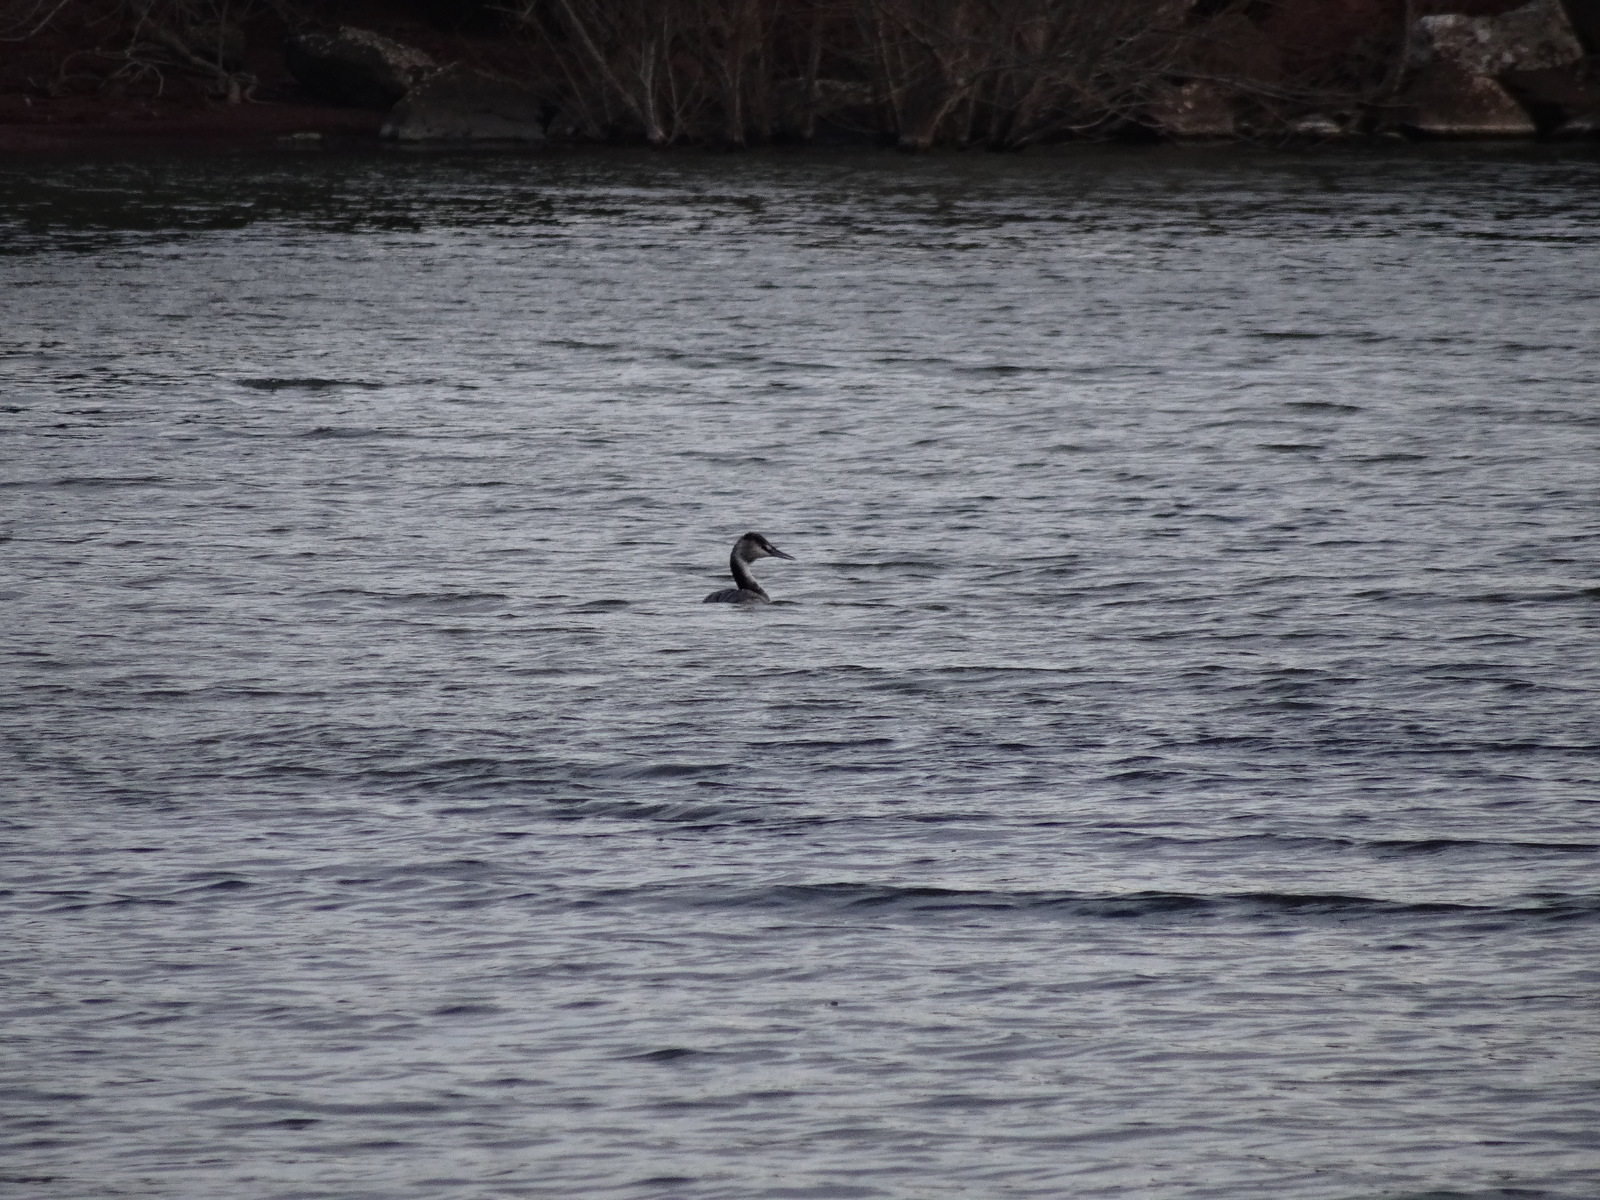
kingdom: Animalia
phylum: Chordata
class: Aves
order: Podicipediformes
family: Podicipedidae
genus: Podiceps
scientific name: Podiceps cristatus
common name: Great crested grebe
